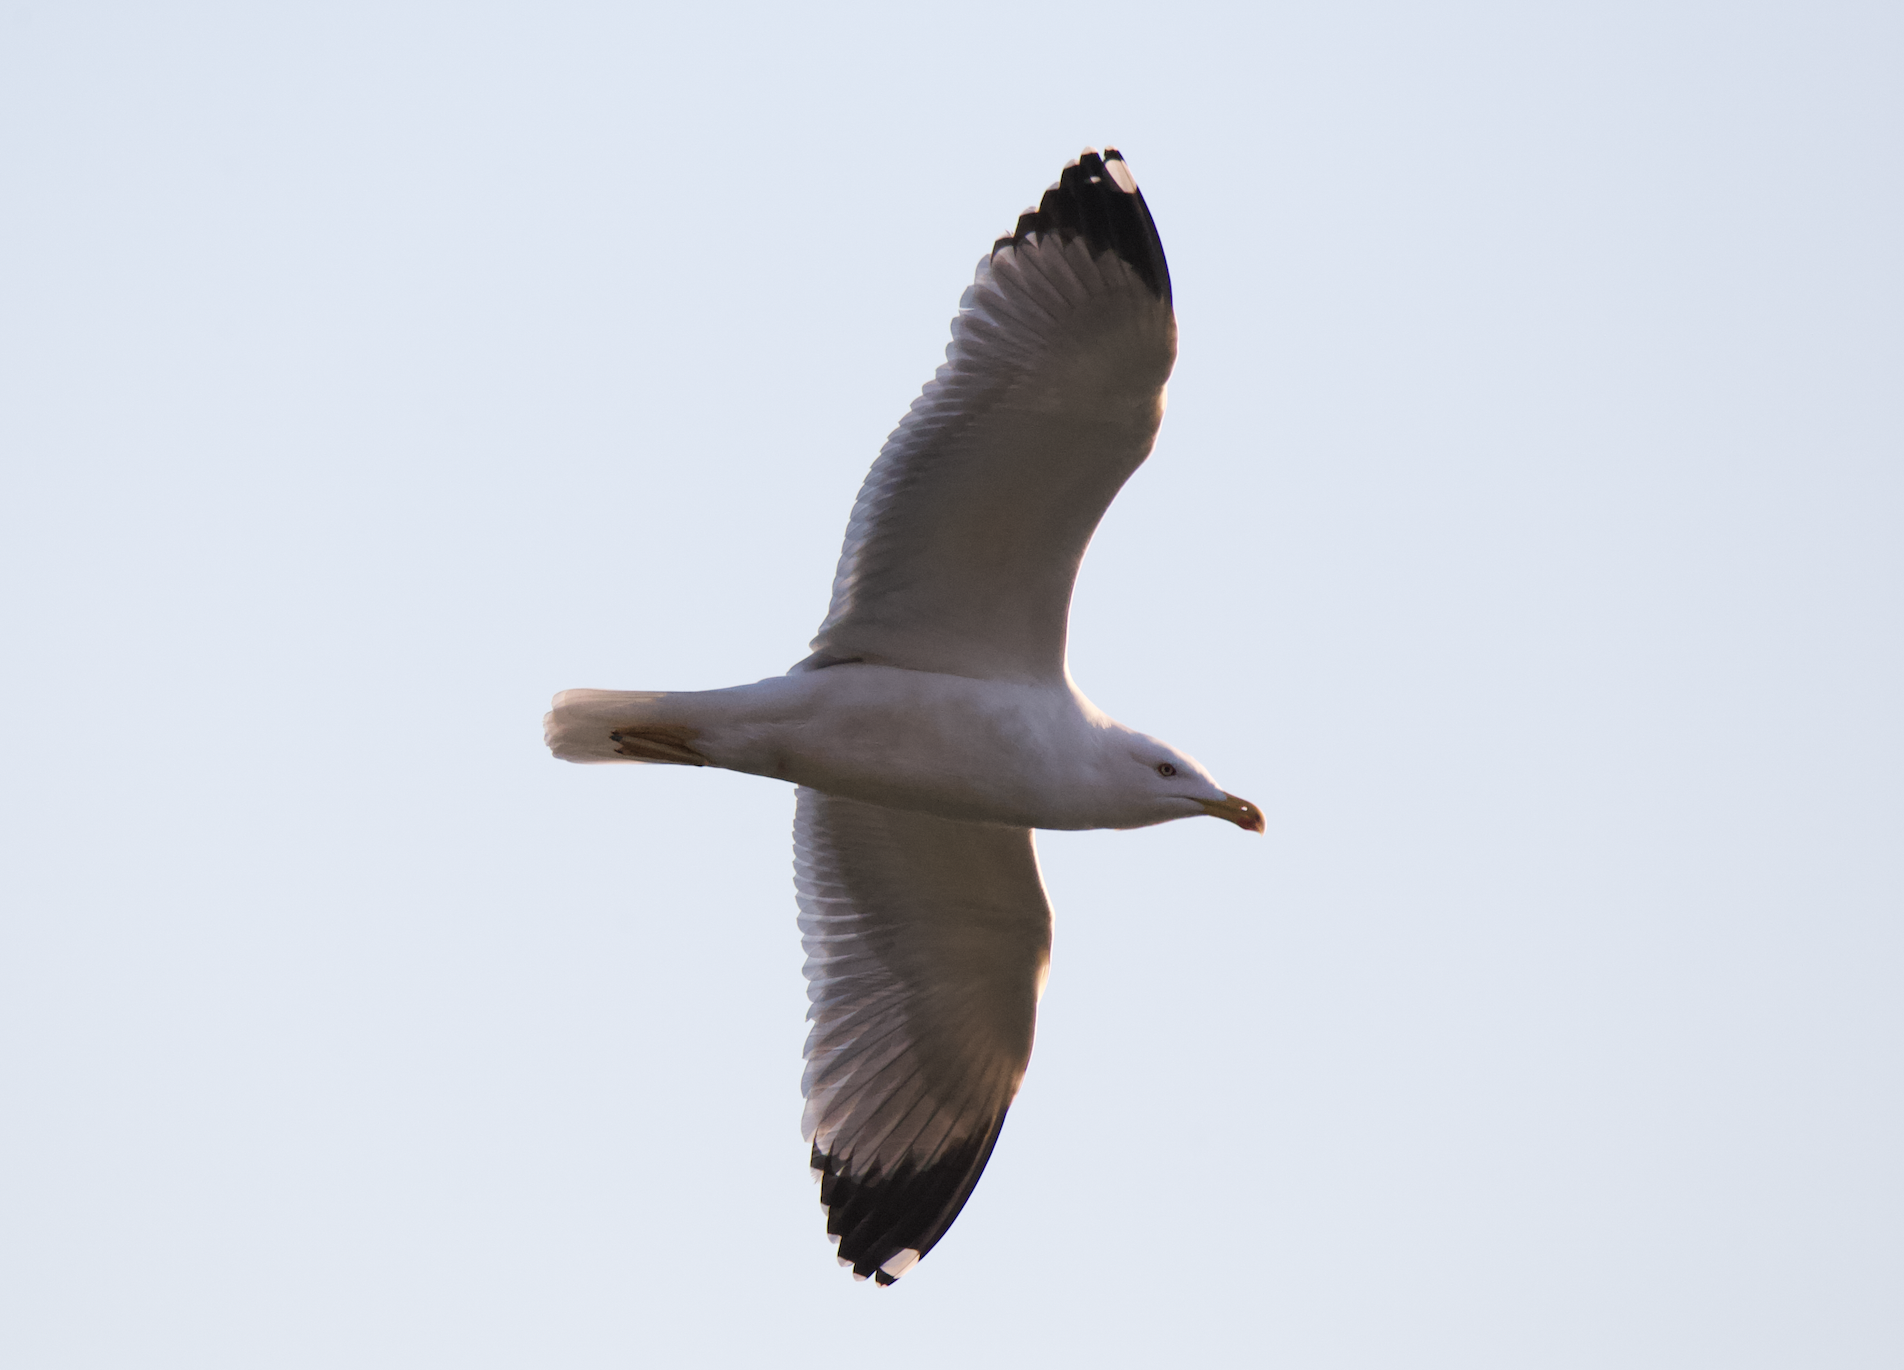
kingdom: Animalia
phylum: Chordata
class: Aves
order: Charadriiformes
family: Laridae
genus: Larus
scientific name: Larus michahellis
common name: Yellow-legged gull
